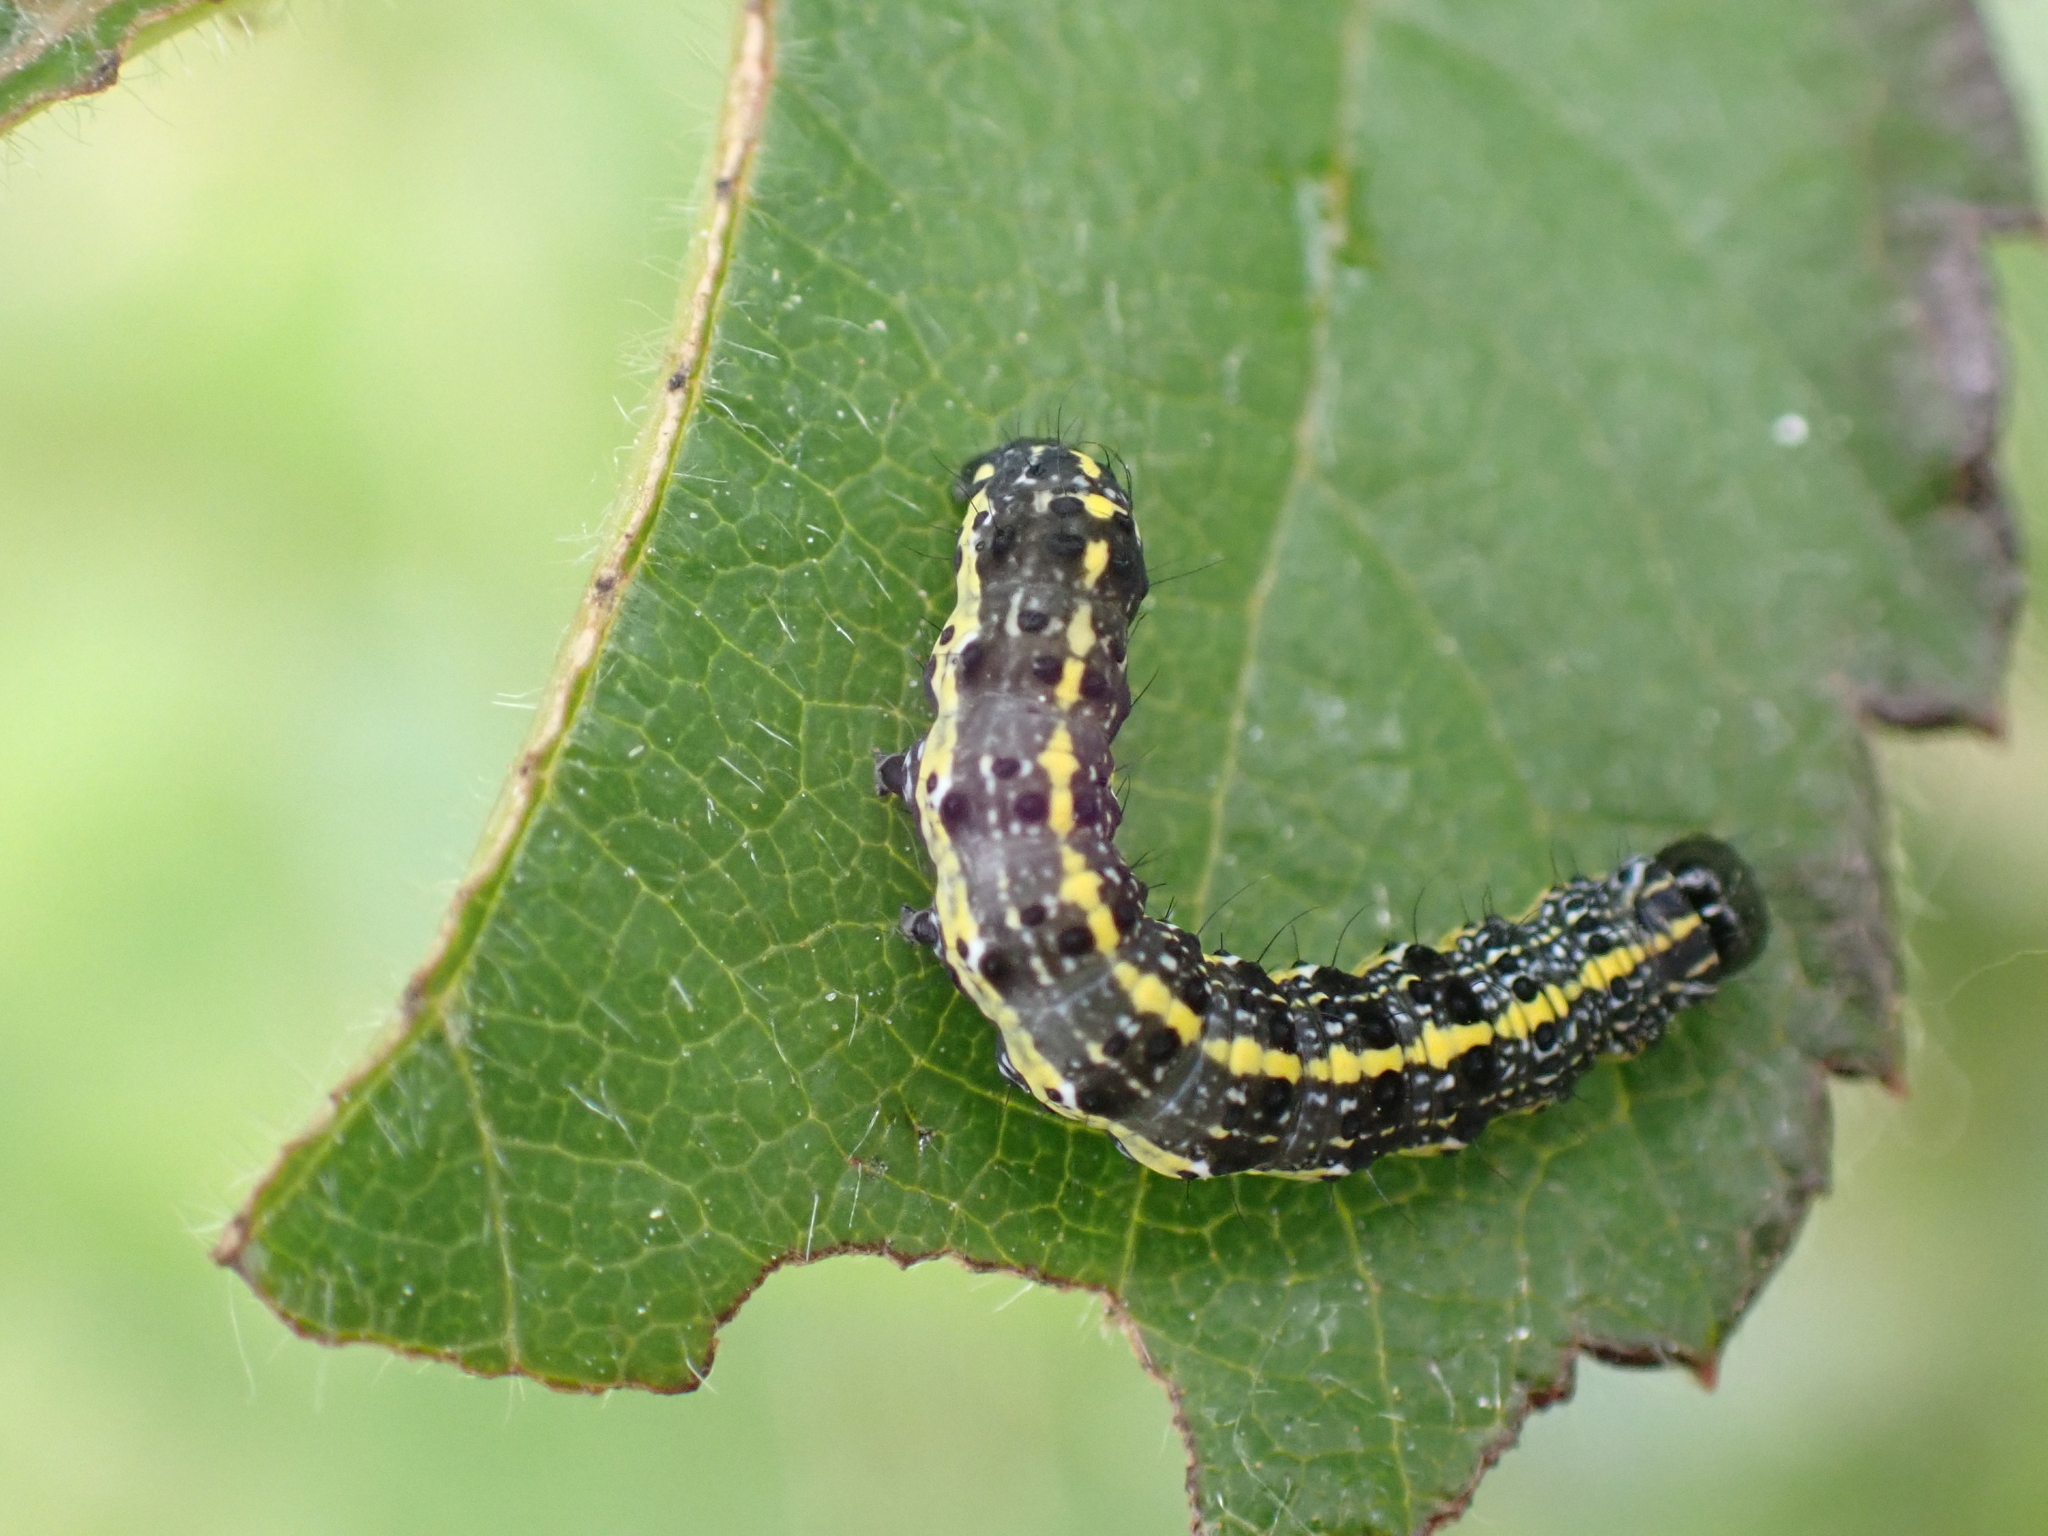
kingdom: Animalia
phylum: Arthropoda
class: Insecta
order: Lepidoptera
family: Noctuidae
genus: Orthosia
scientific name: Orthosia miniosa
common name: Blossom underwing
